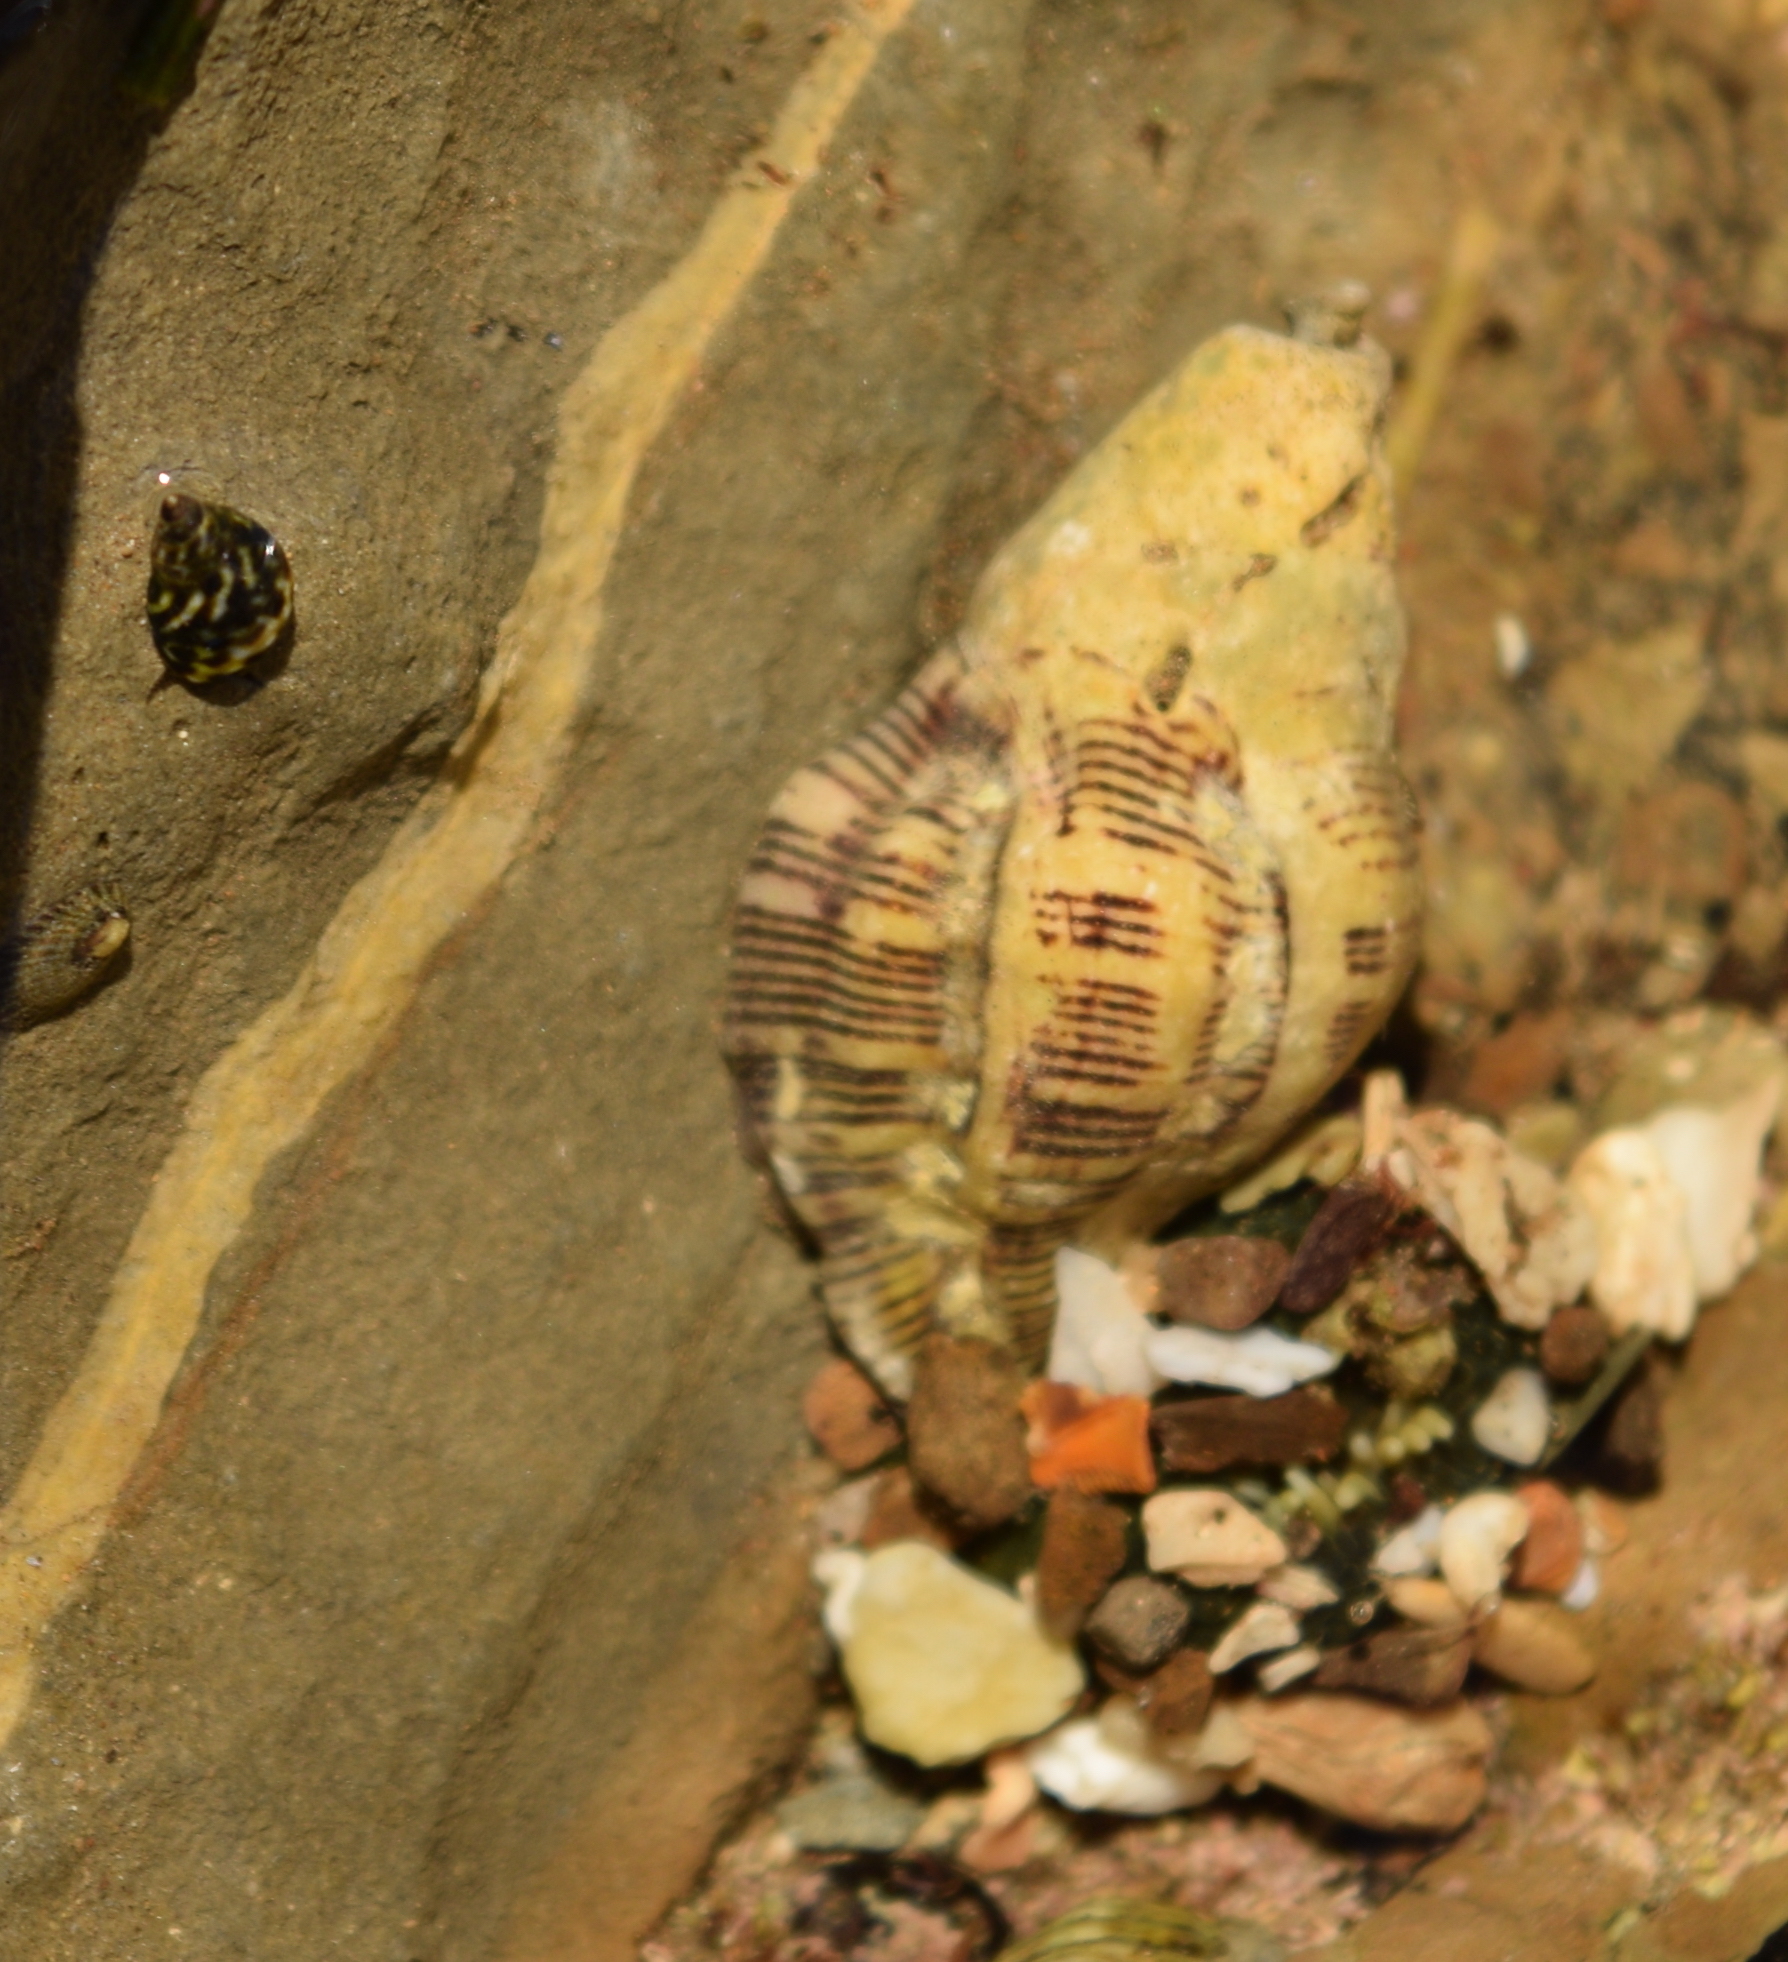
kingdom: Animalia
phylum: Mollusca
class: Gastropoda
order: Neogastropoda
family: Muricidae
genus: Roperia
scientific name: Roperia poulsoni
